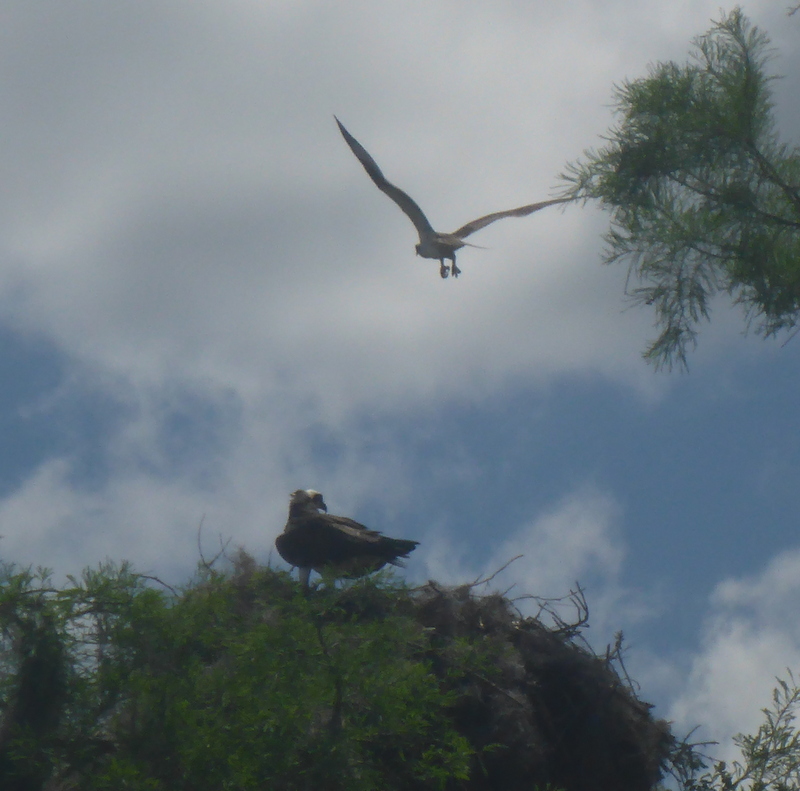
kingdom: Animalia
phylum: Chordata
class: Aves
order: Accipitriformes
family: Pandionidae
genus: Pandion
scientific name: Pandion haliaetus
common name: Osprey
